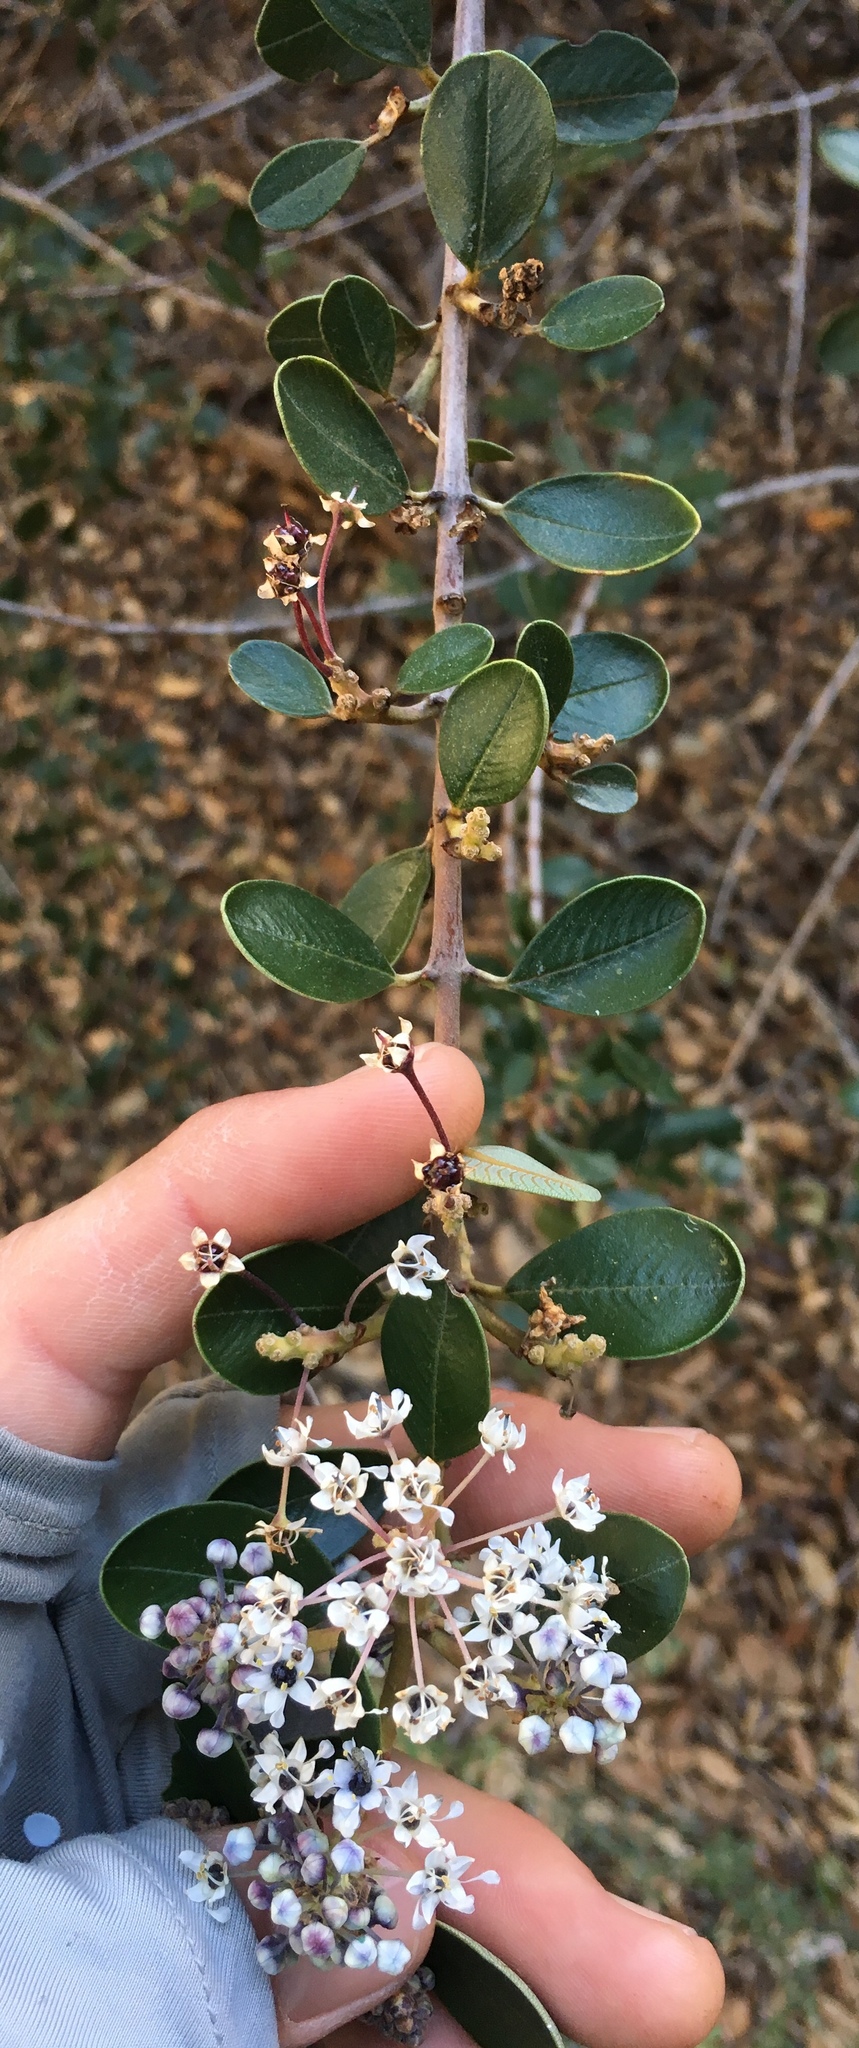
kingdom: Plantae
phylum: Tracheophyta
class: Magnoliopsida
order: Rosales
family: Rhamnaceae
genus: Ceanothus
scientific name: Ceanothus megacarpus
